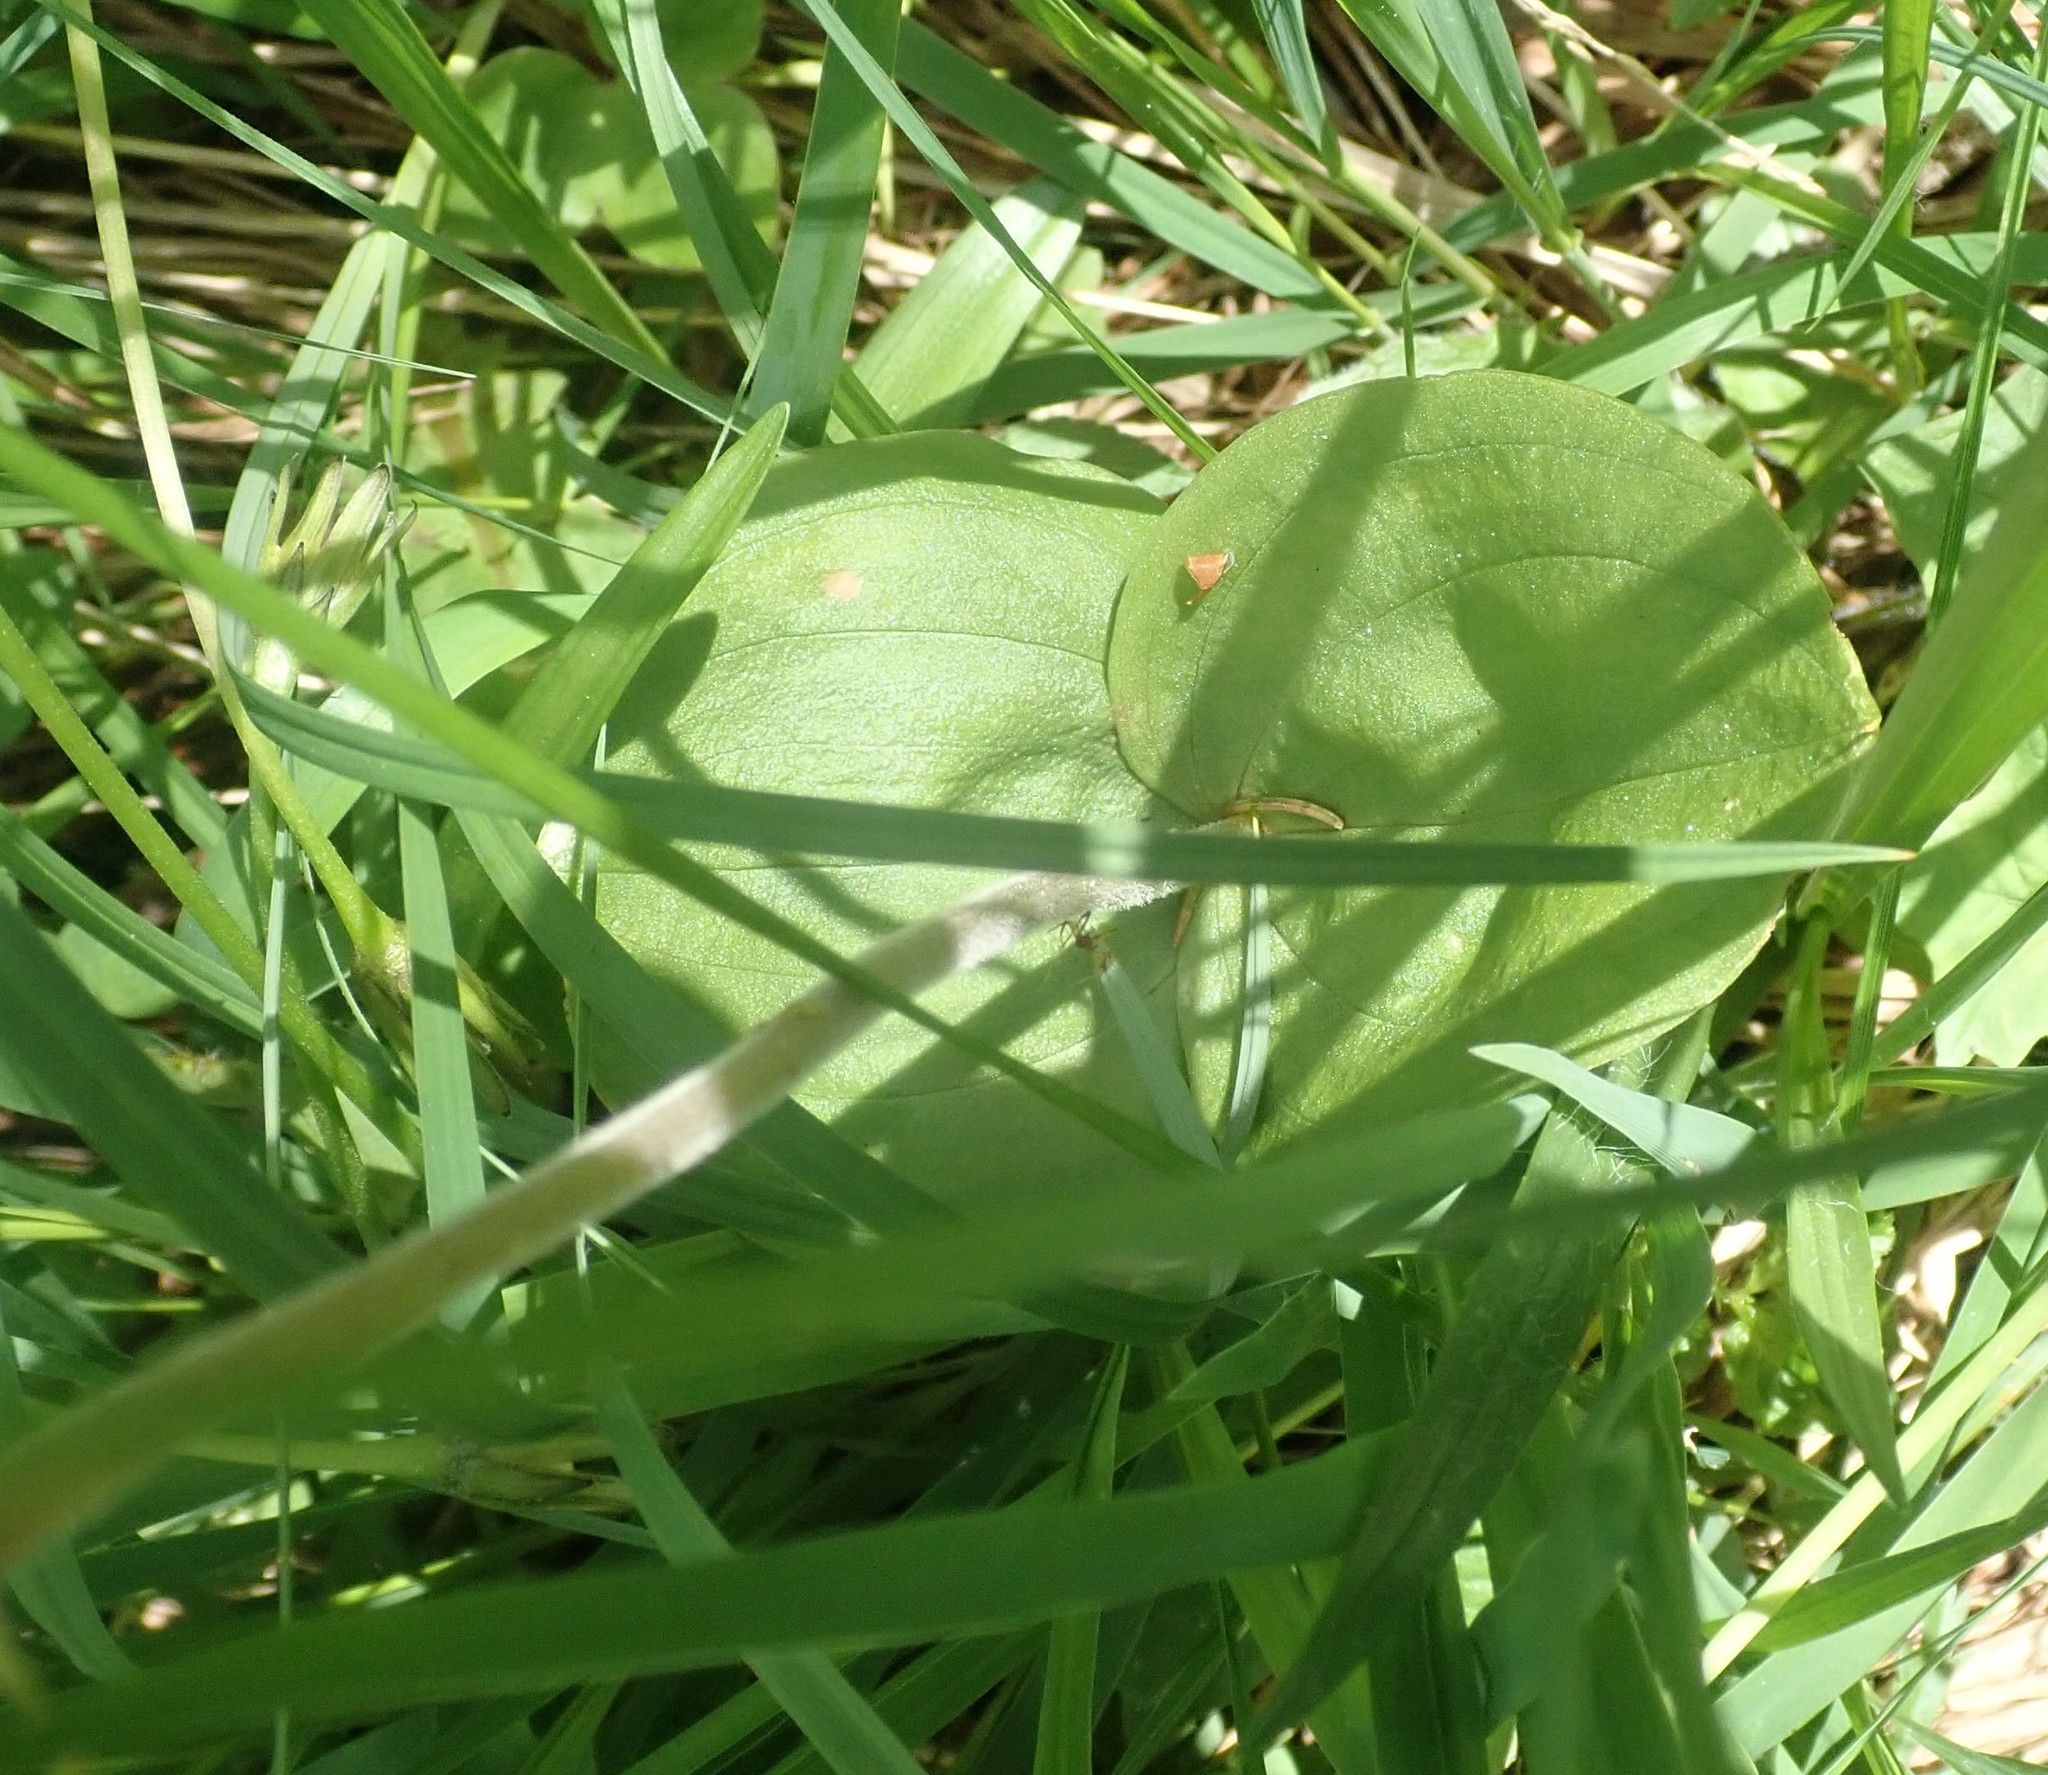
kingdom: Plantae
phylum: Tracheophyta
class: Liliopsida
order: Asparagales
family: Orchidaceae
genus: Neottia
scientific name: Neottia ovata
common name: Common twayblade
